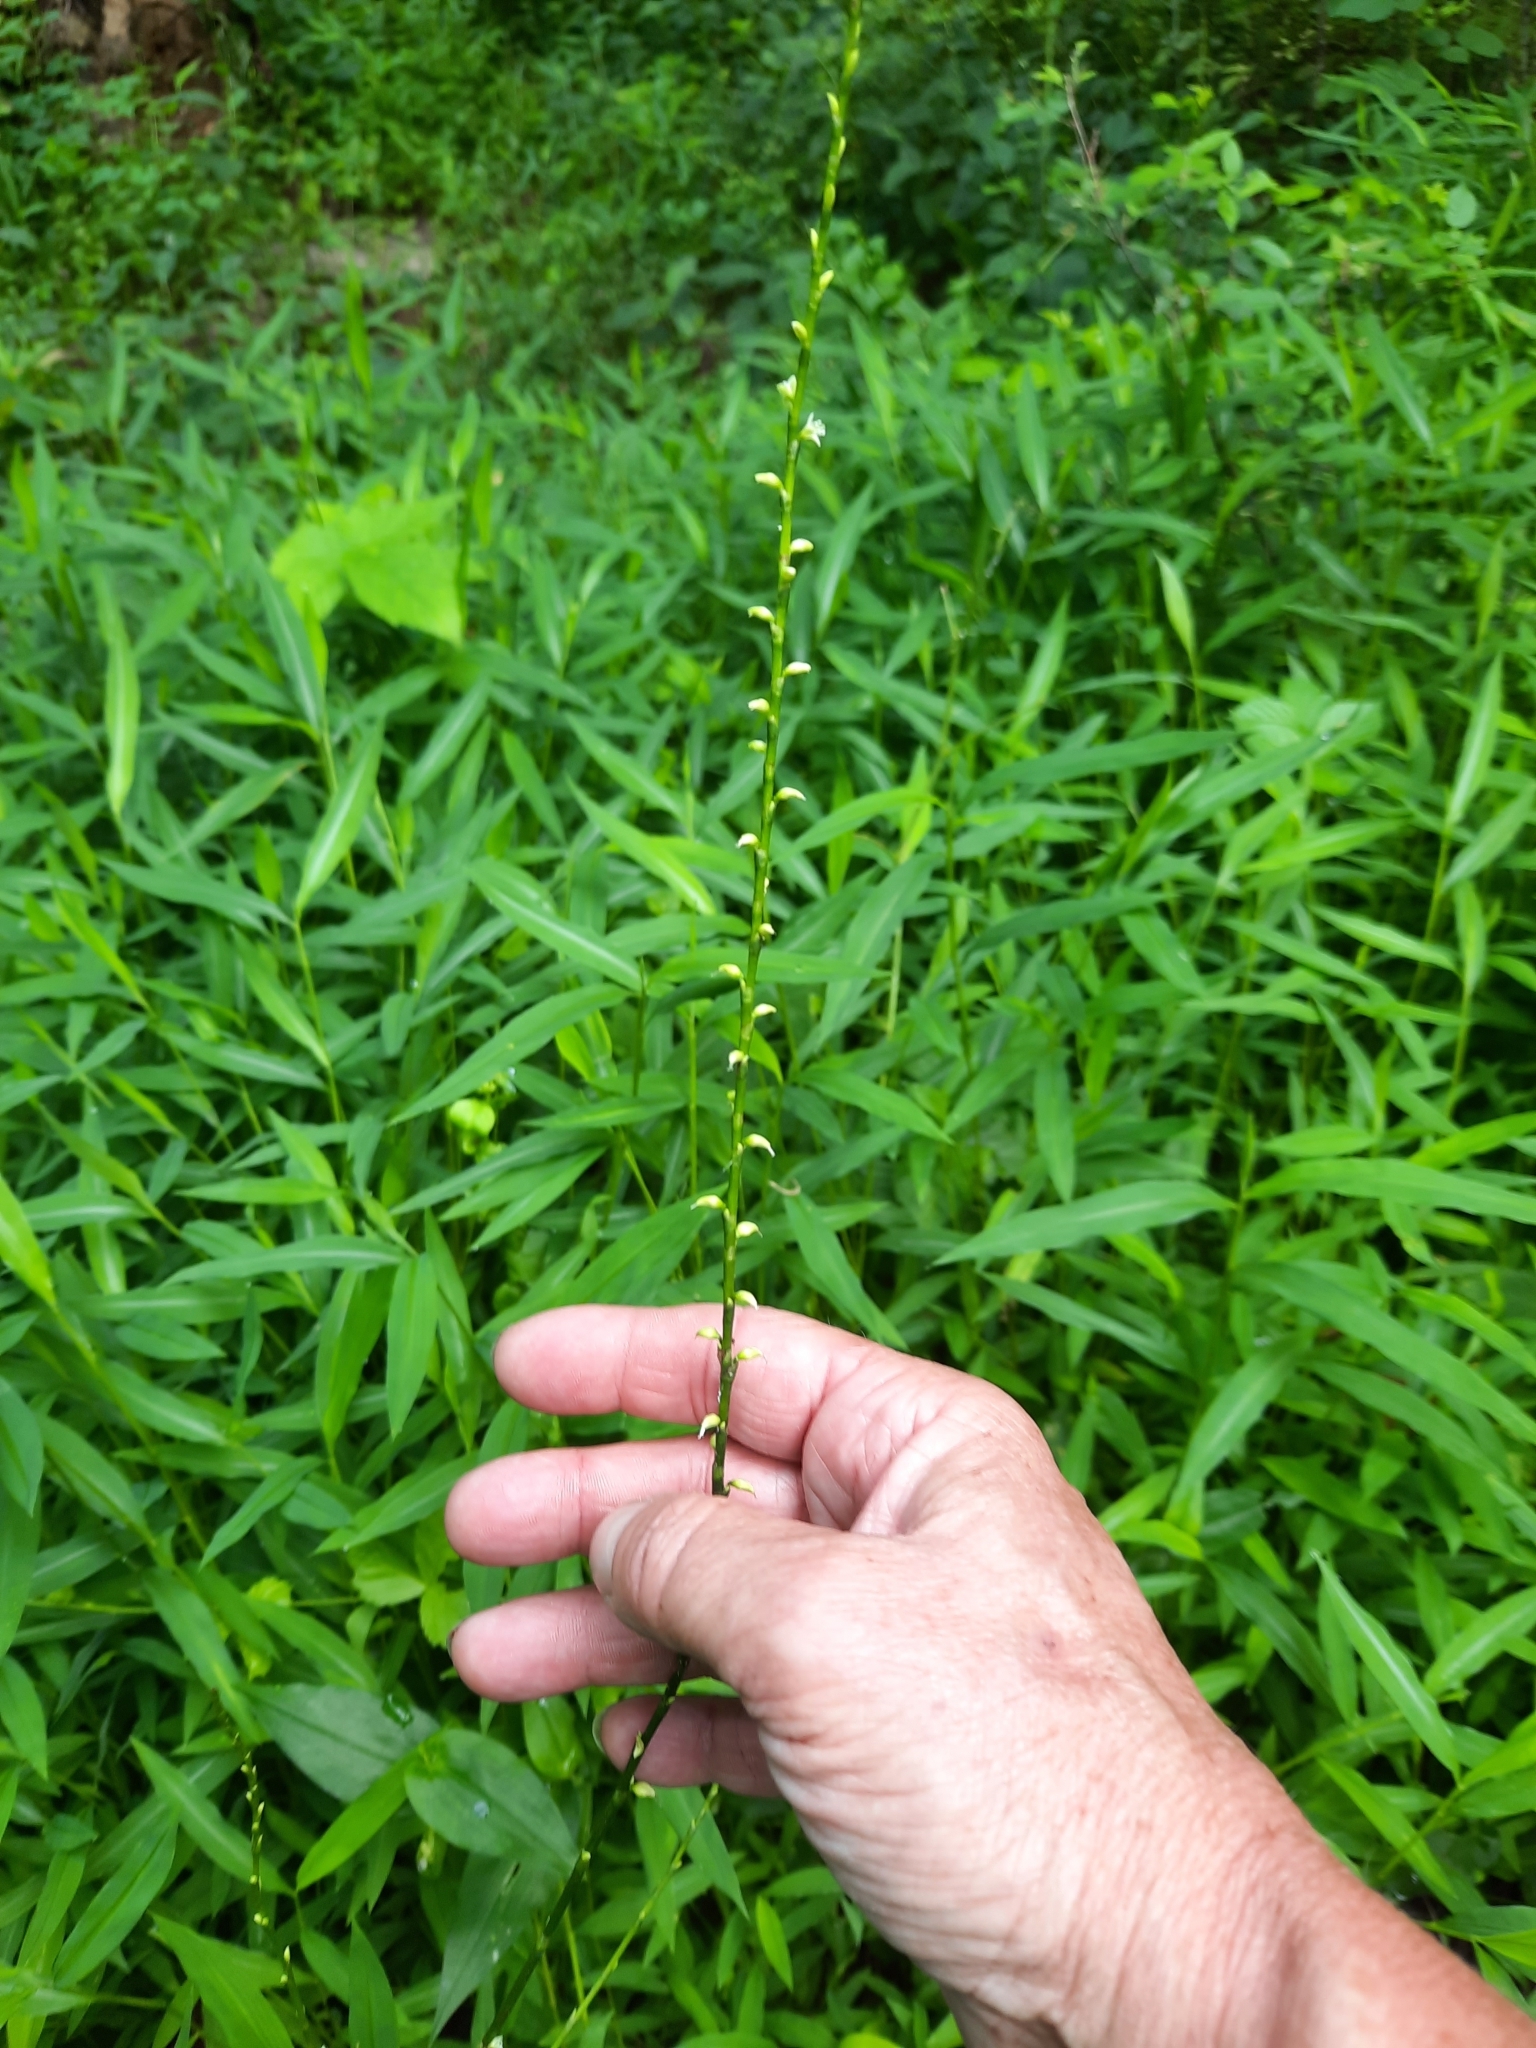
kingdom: Plantae
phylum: Tracheophyta
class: Magnoliopsida
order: Caryophyllales
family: Polygonaceae
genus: Persicaria
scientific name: Persicaria virginiana
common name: Jumpseed
